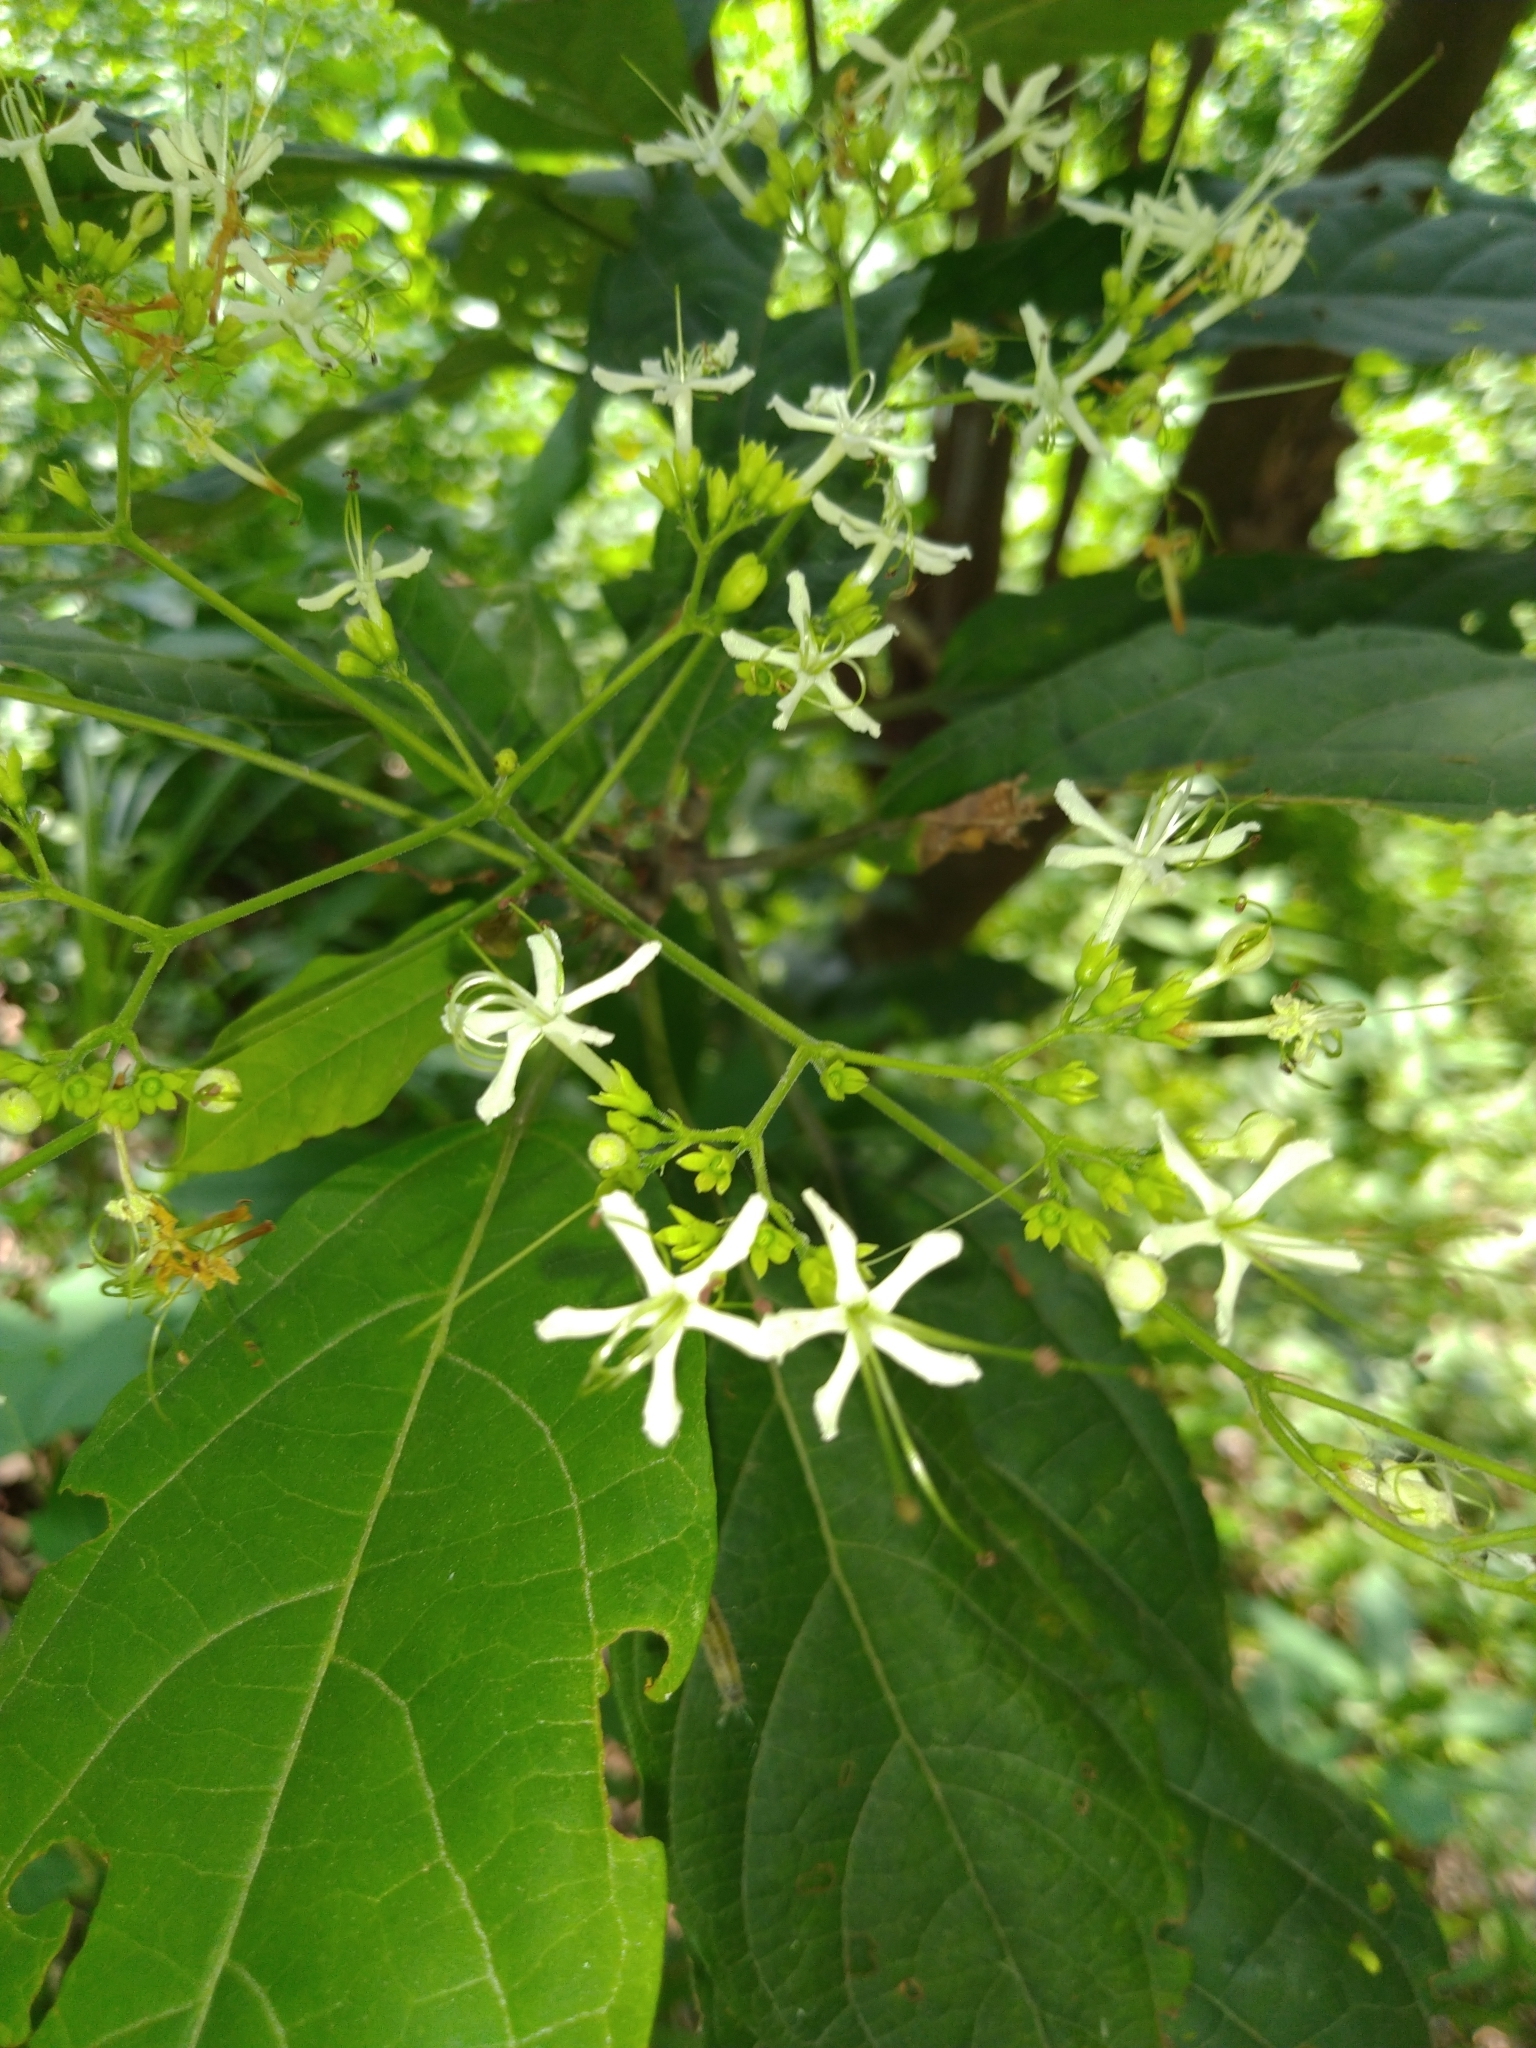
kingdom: Plantae
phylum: Tracheophyta
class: Magnoliopsida
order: Lamiales
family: Lamiaceae
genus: Clerodendrum
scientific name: Clerodendrum cyrtophyllum
